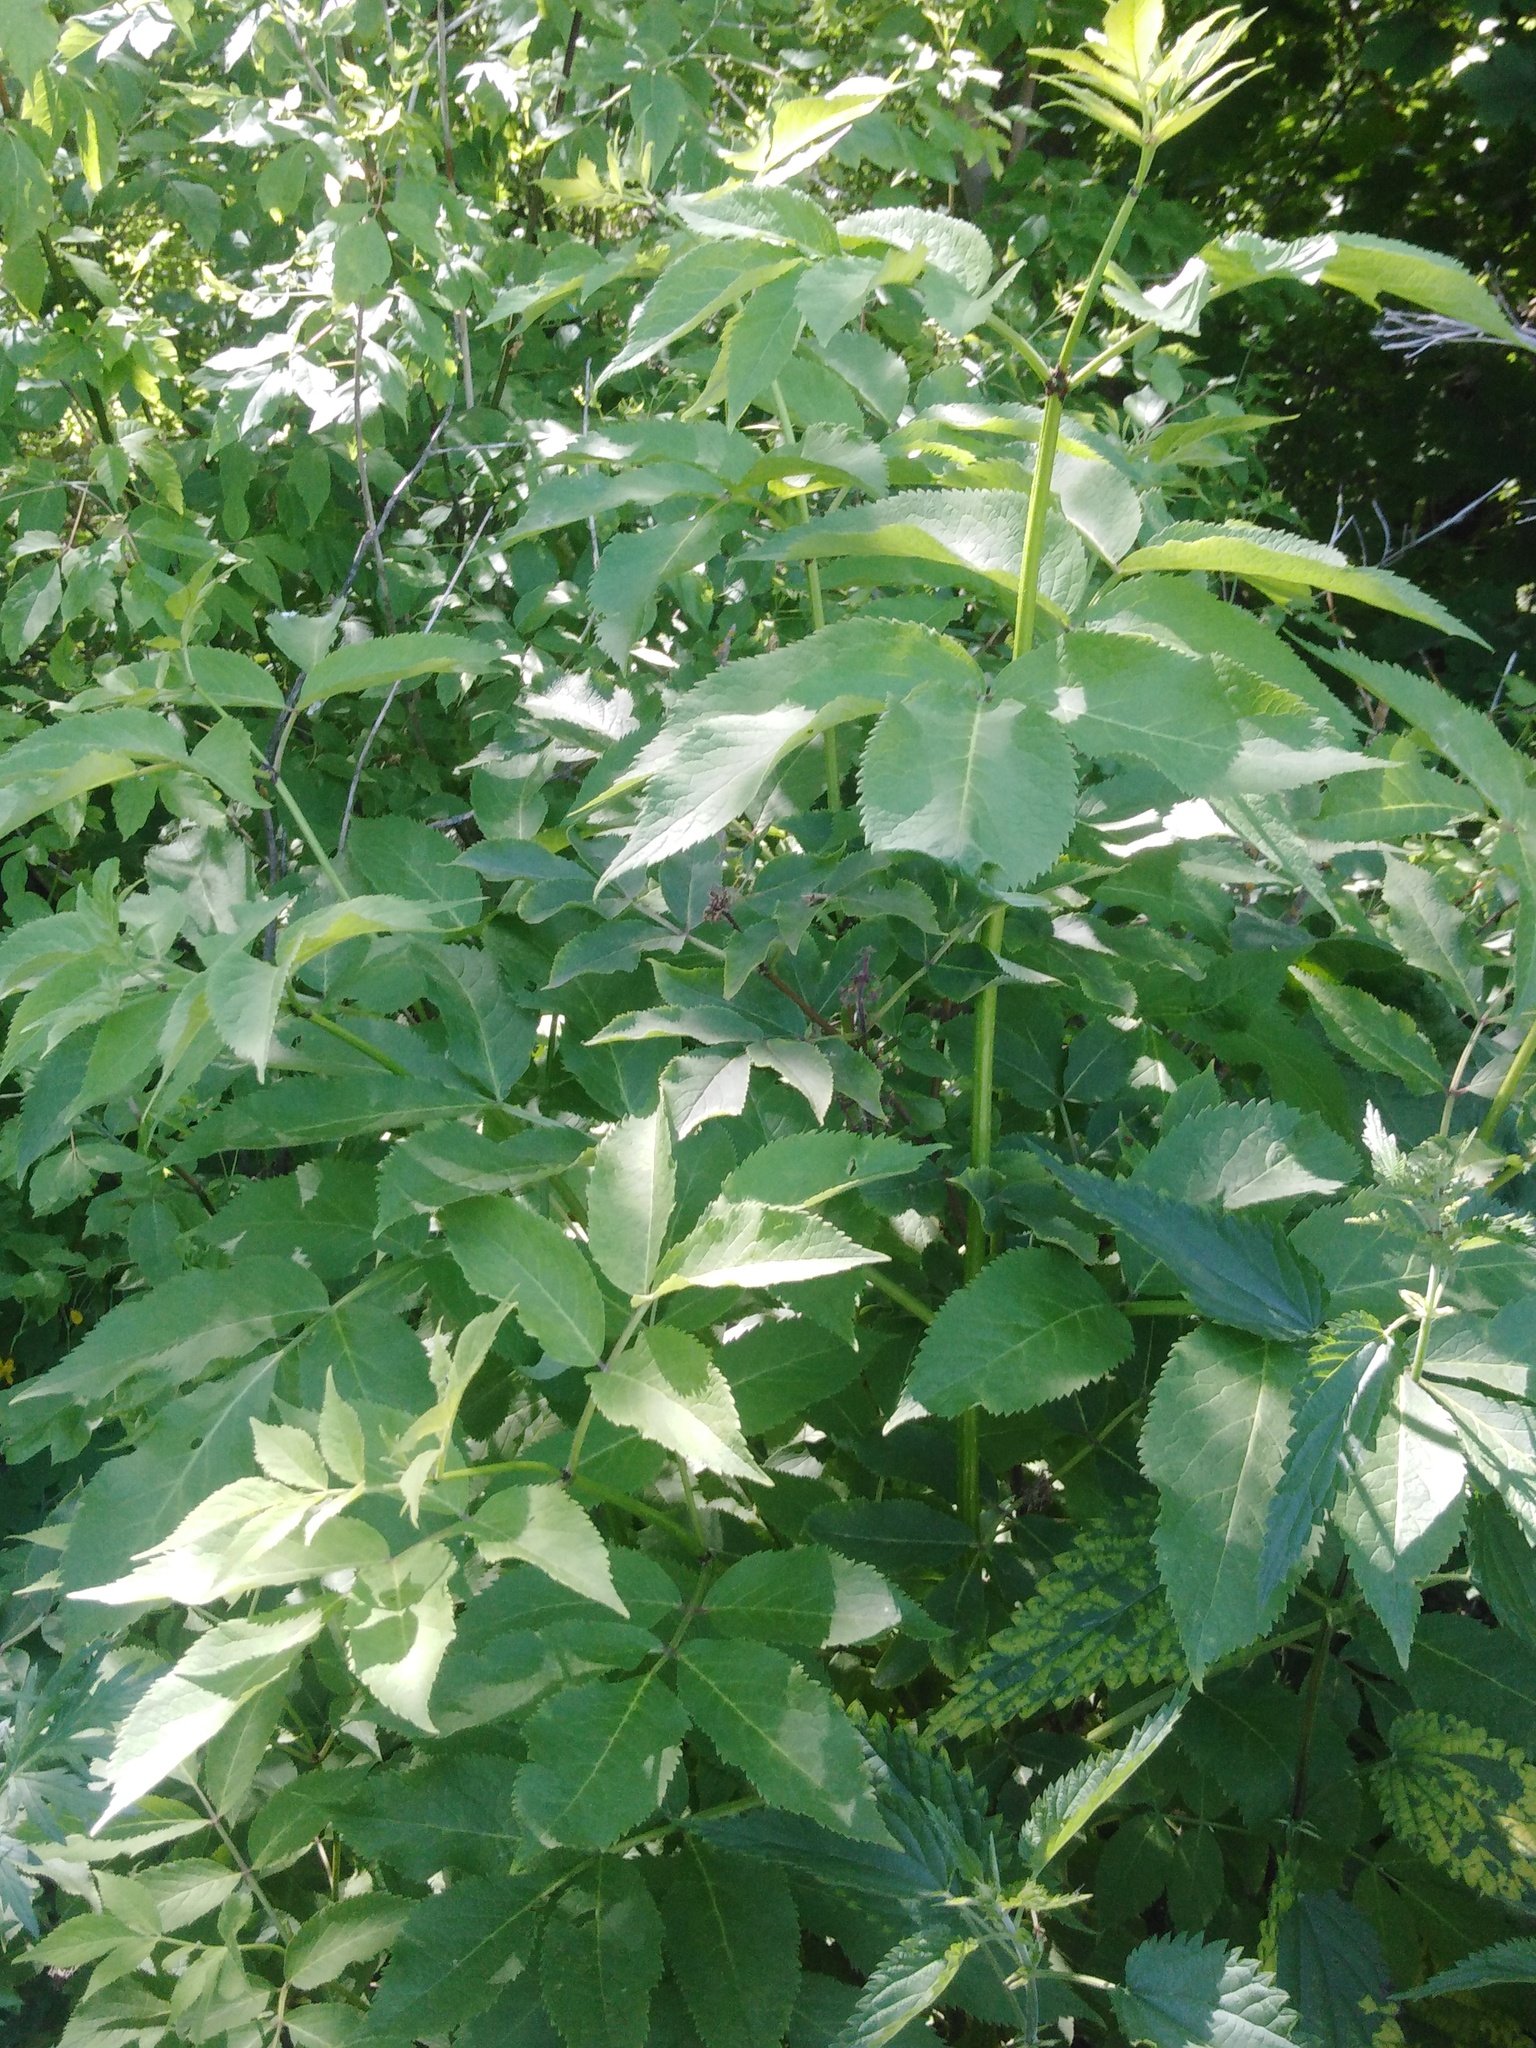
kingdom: Plantae
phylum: Tracheophyta
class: Magnoliopsida
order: Dipsacales
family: Viburnaceae
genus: Sambucus
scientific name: Sambucus racemosa
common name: Red-berried elder
